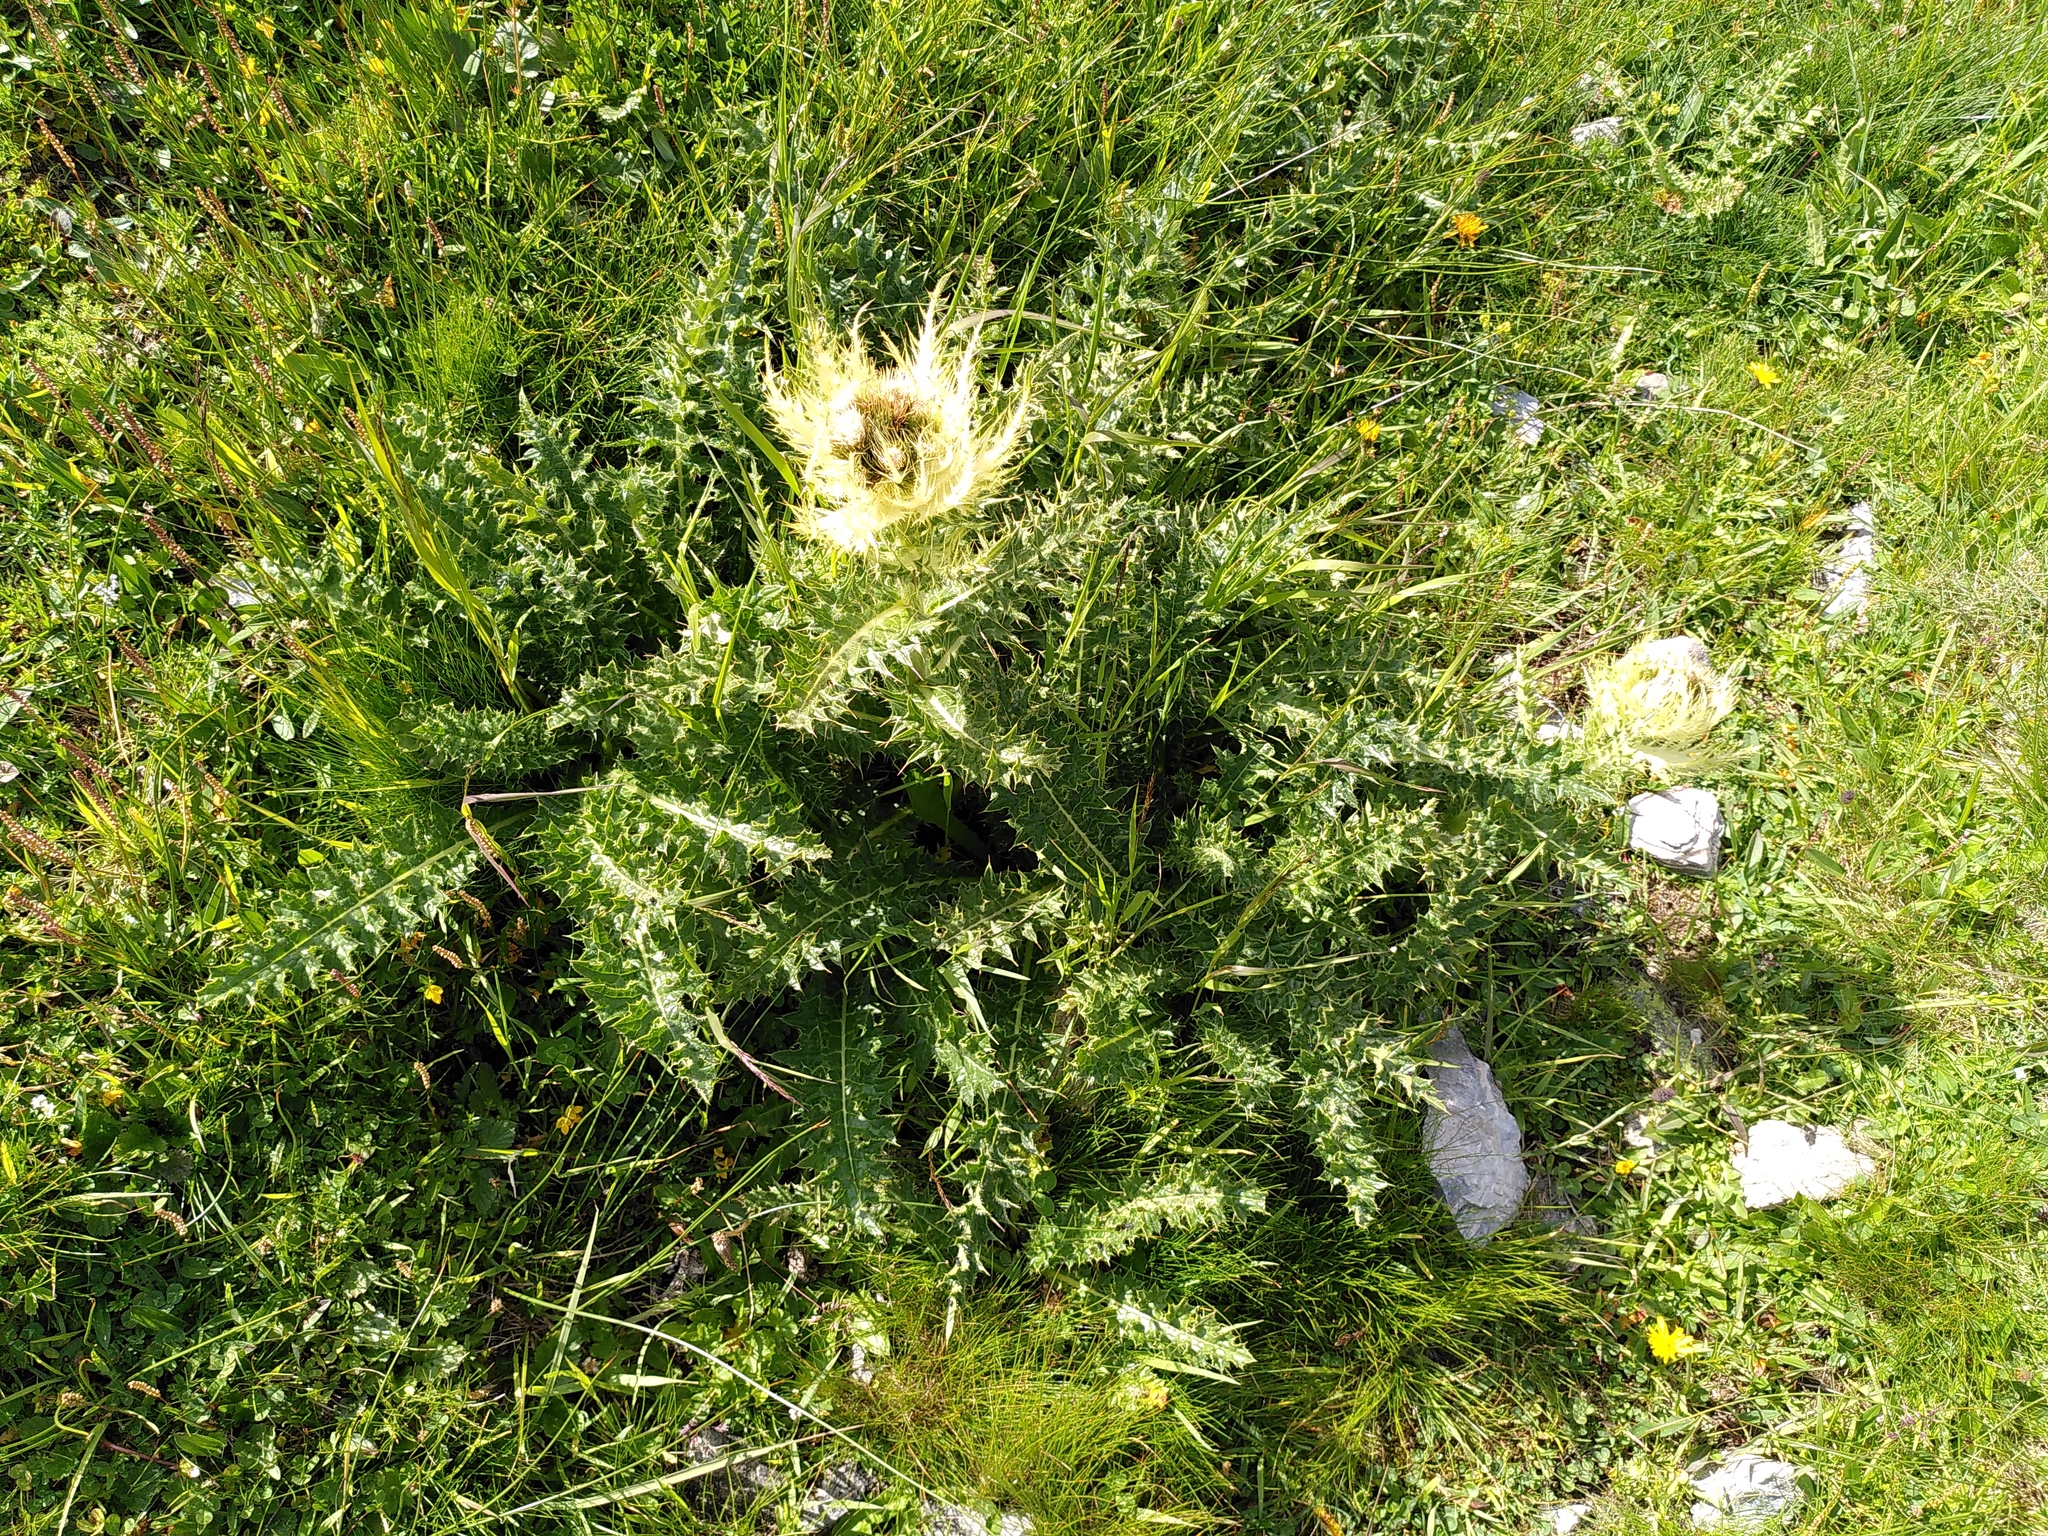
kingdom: Plantae
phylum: Tracheophyta
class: Magnoliopsida
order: Asterales
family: Asteraceae
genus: Cirsium
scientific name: Cirsium spinosissimum
